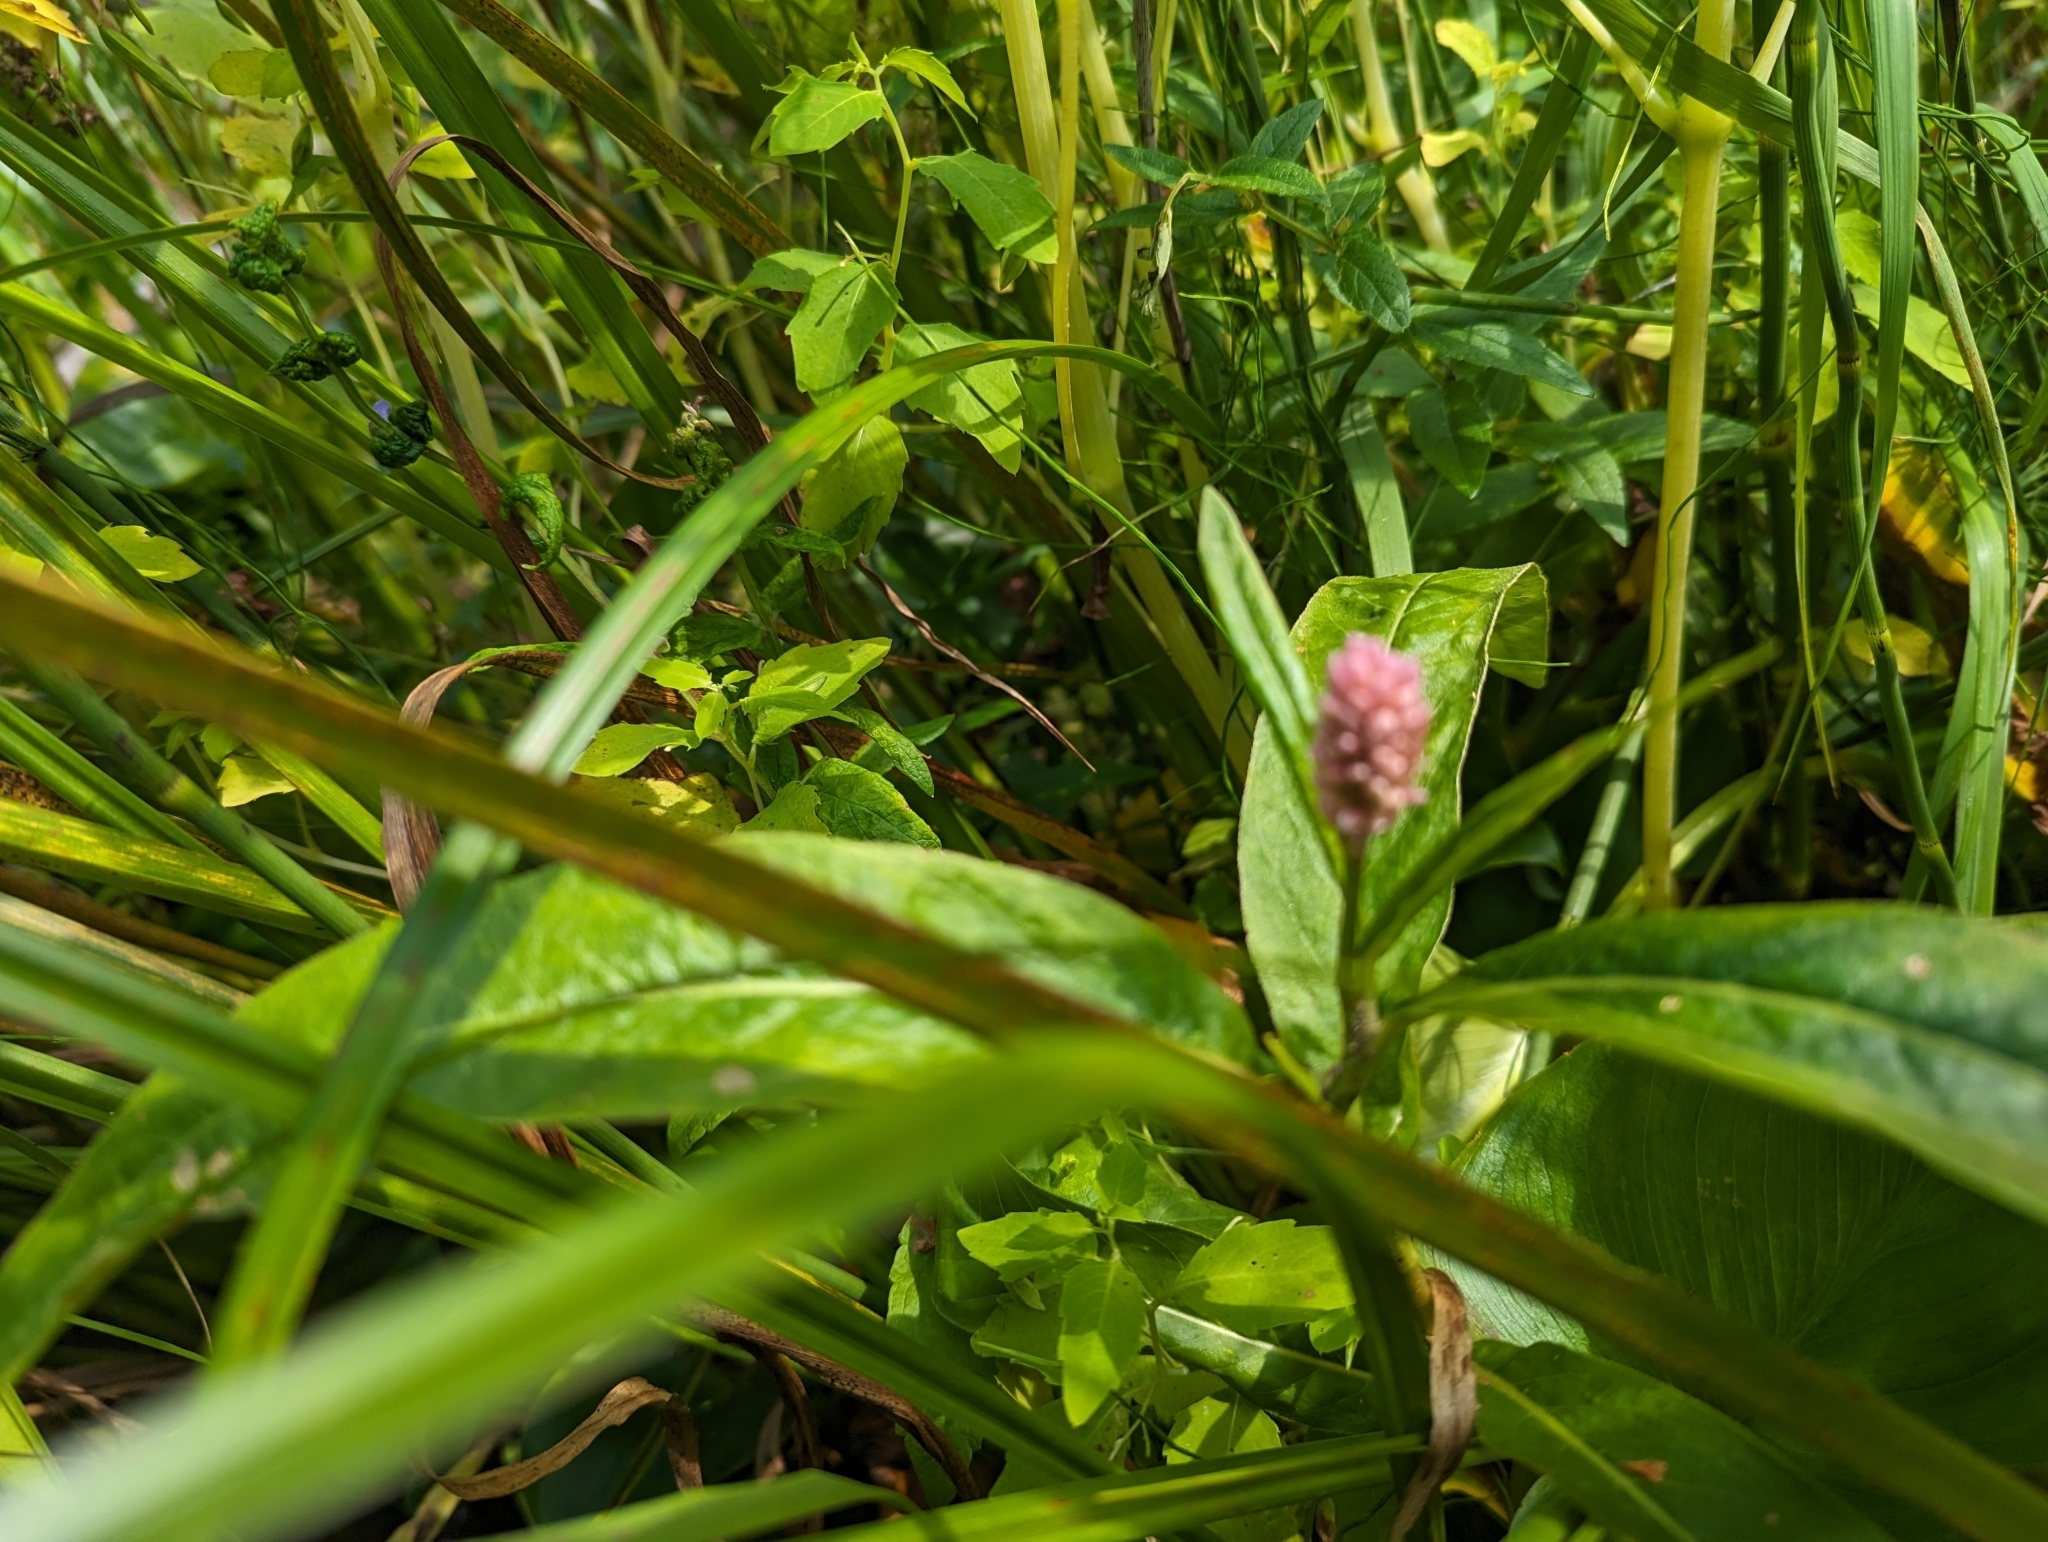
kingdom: Plantae
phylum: Tracheophyta
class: Magnoliopsida
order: Caryophyllales
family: Polygonaceae
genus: Persicaria
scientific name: Persicaria amphibia
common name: Amphibious bistort
